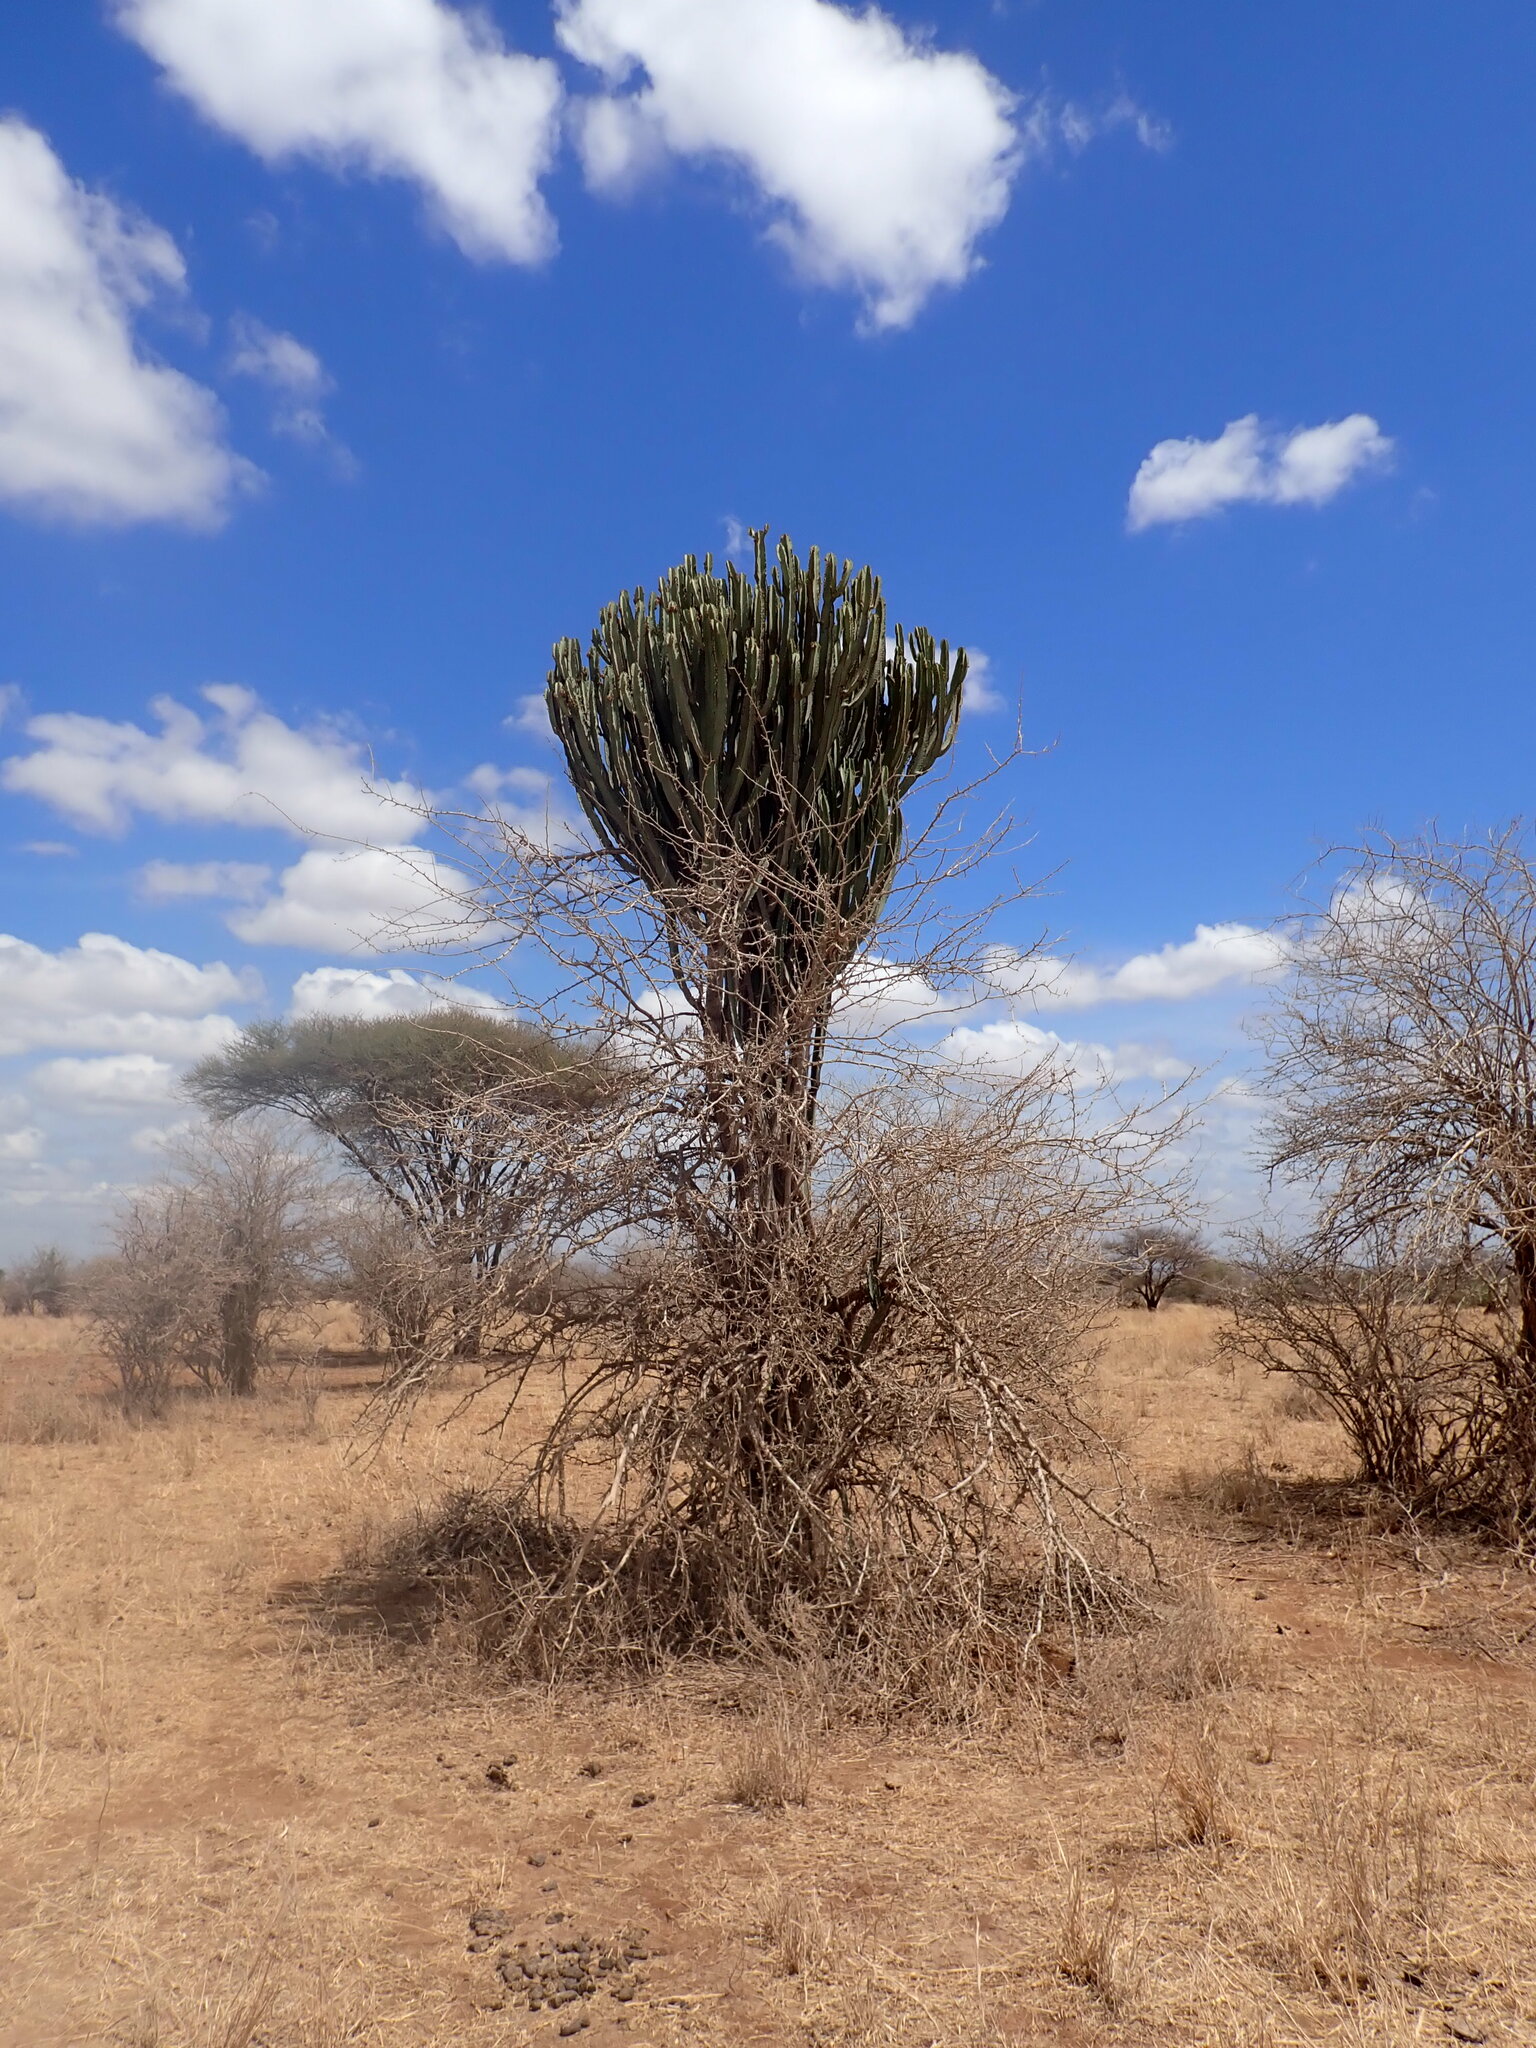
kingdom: Plantae
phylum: Tracheophyta
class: Magnoliopsida
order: Malpighiales
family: Euphorbiaceae
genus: Euphorbia
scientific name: Euphorbia ingens
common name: Cactus spurge
